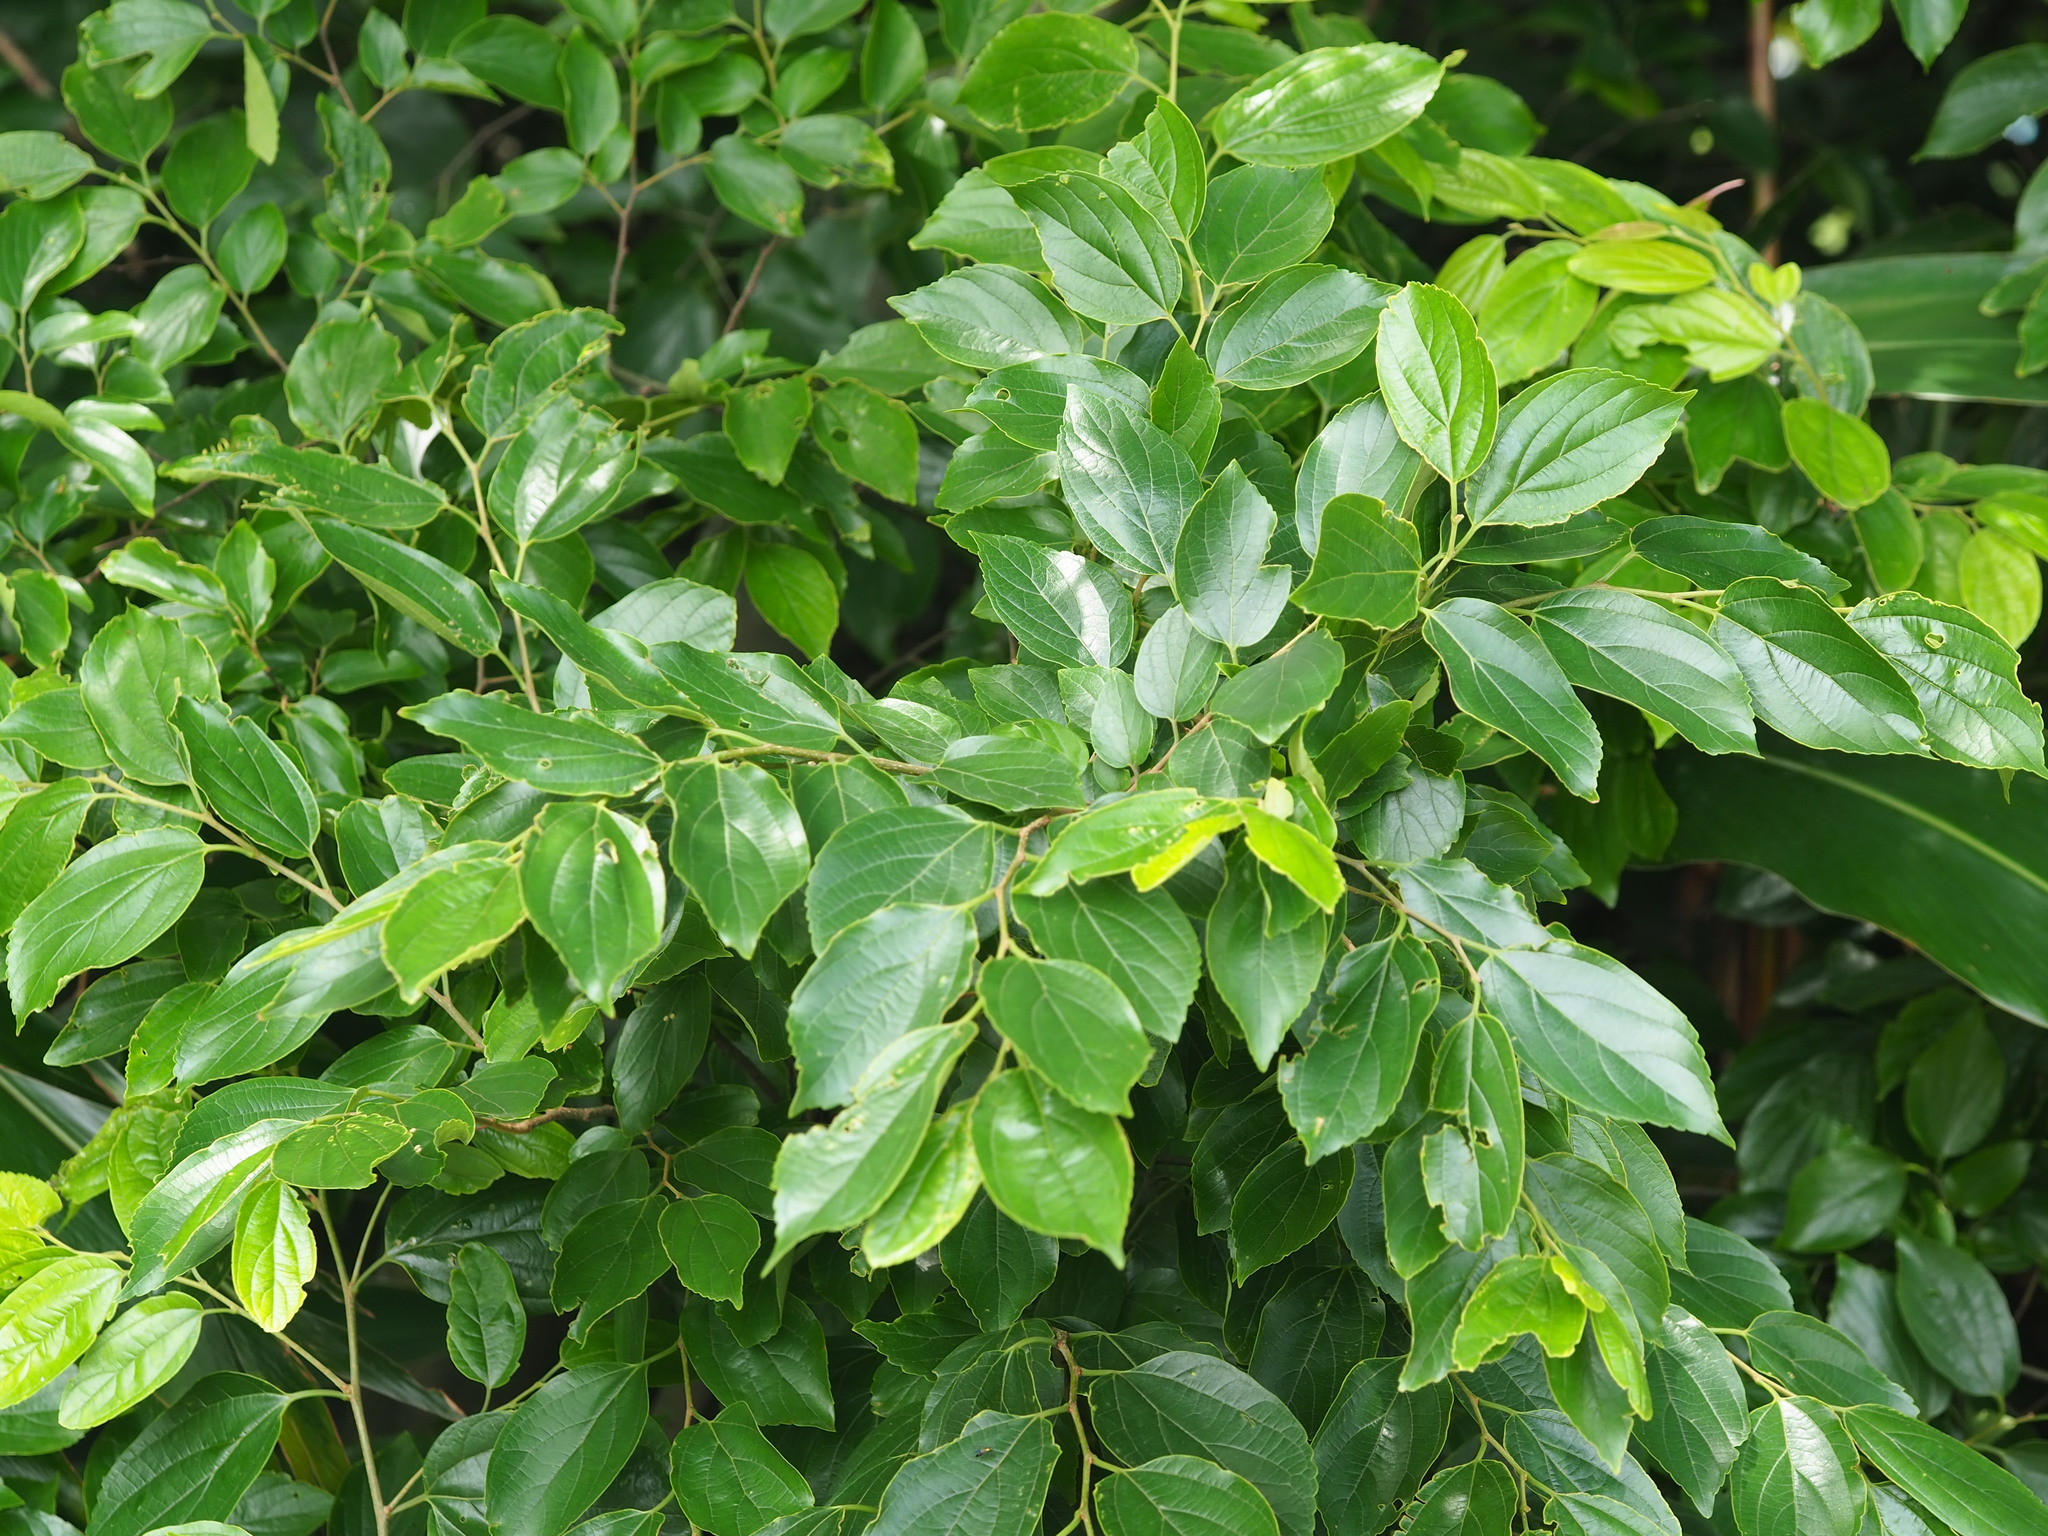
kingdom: Plantae
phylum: Tracheophyta
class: Magnoliopsida
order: Rosales
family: Cannabaceae
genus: Celtis
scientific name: Celtis sinensis
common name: Chinese hackberry
